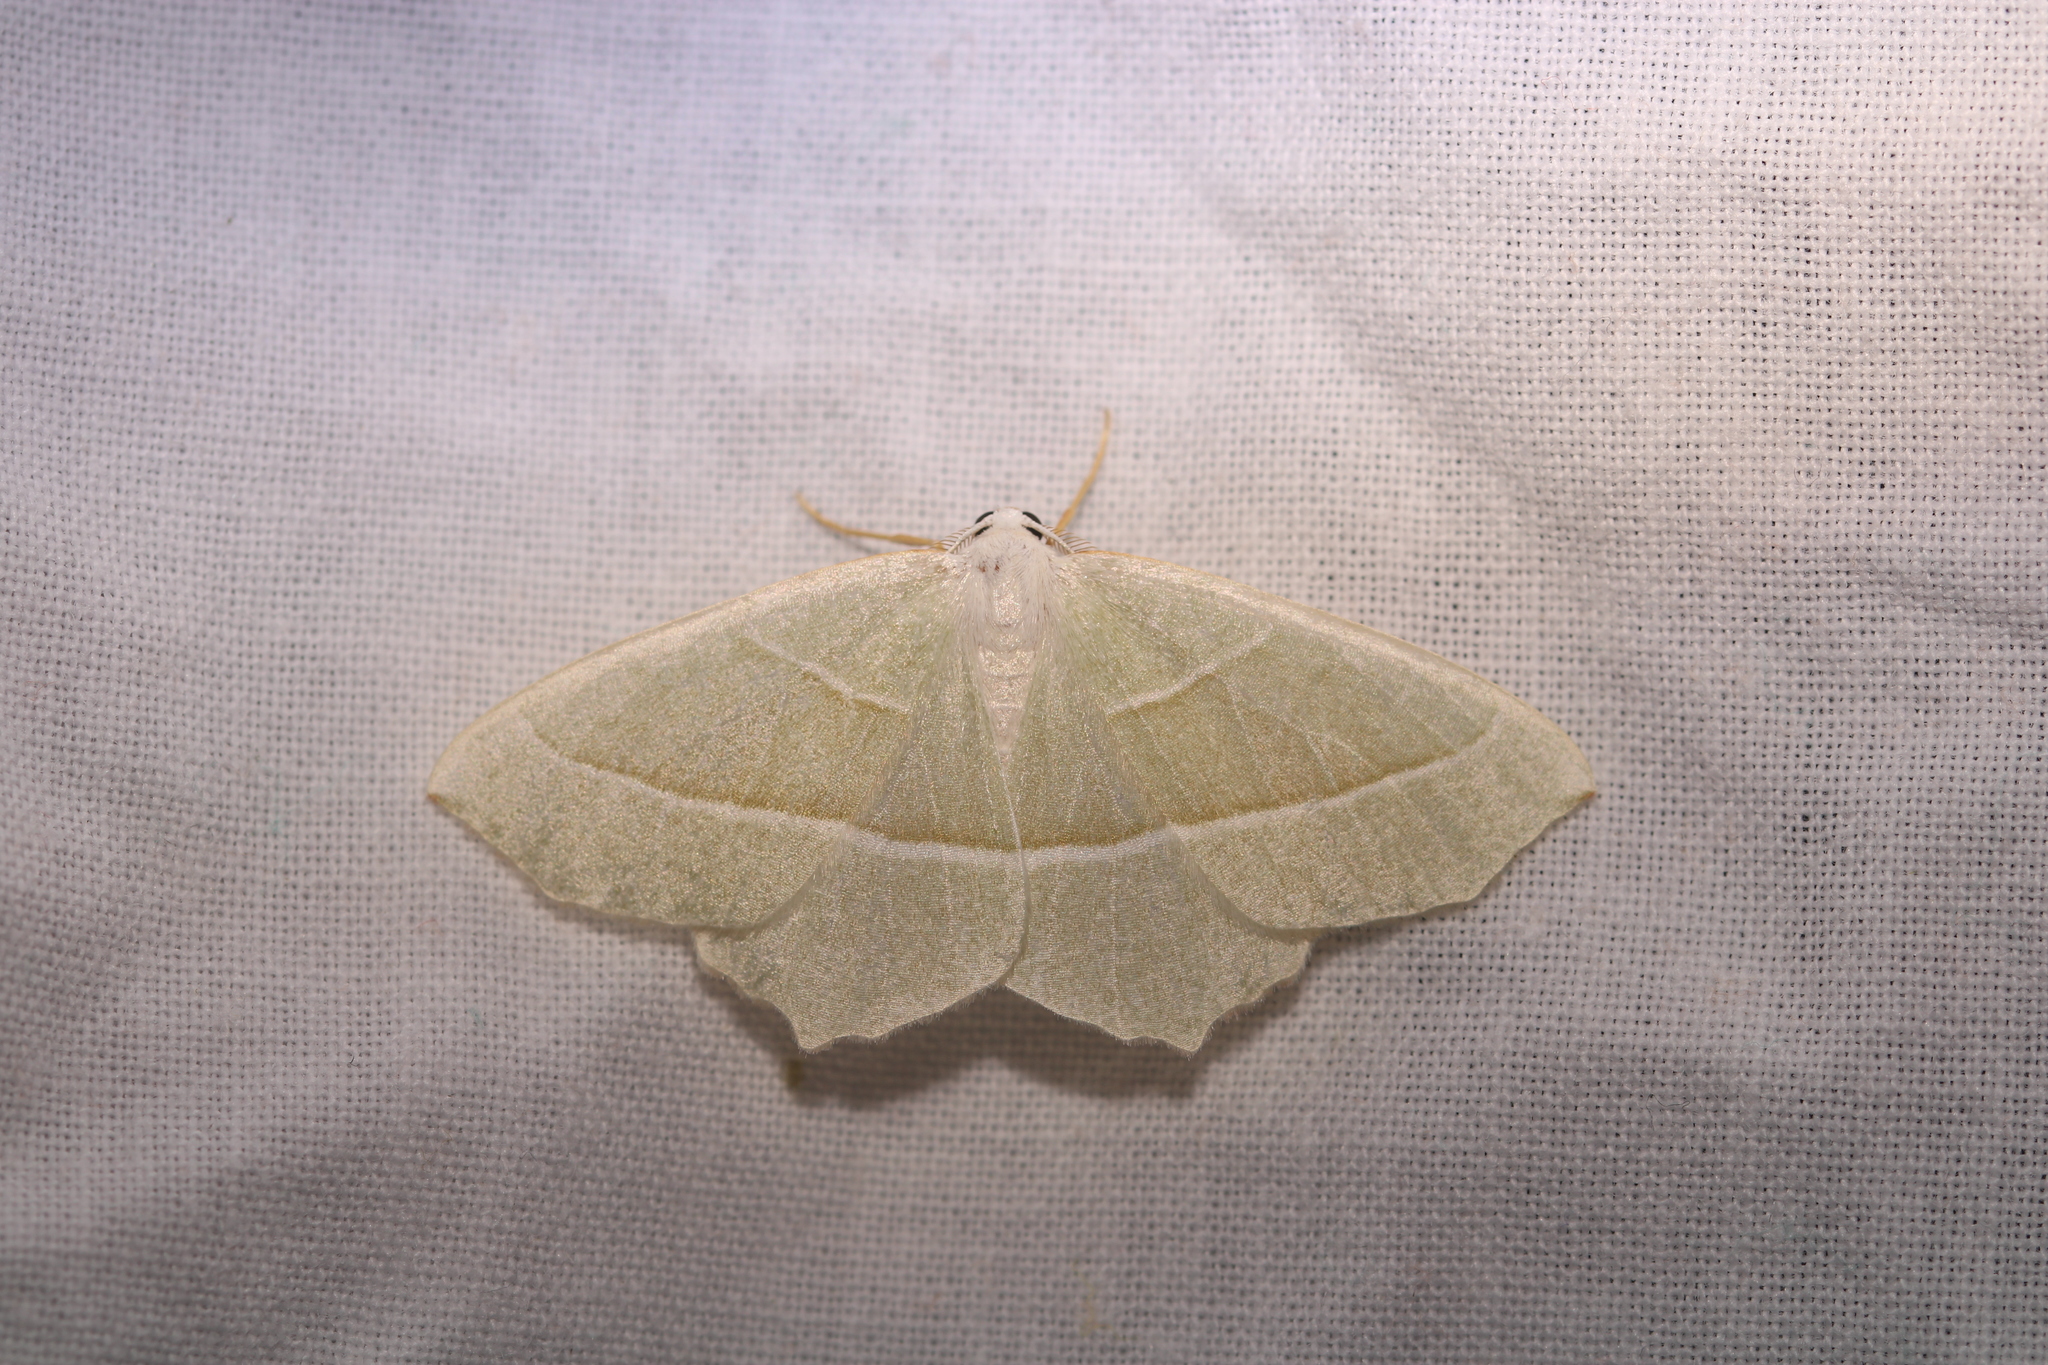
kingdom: Animalia
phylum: Arthropoda
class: Insecta
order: Lepidoptera
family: Geometridae
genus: Campaea
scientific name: Campaea margaritaria
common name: Light emerald
